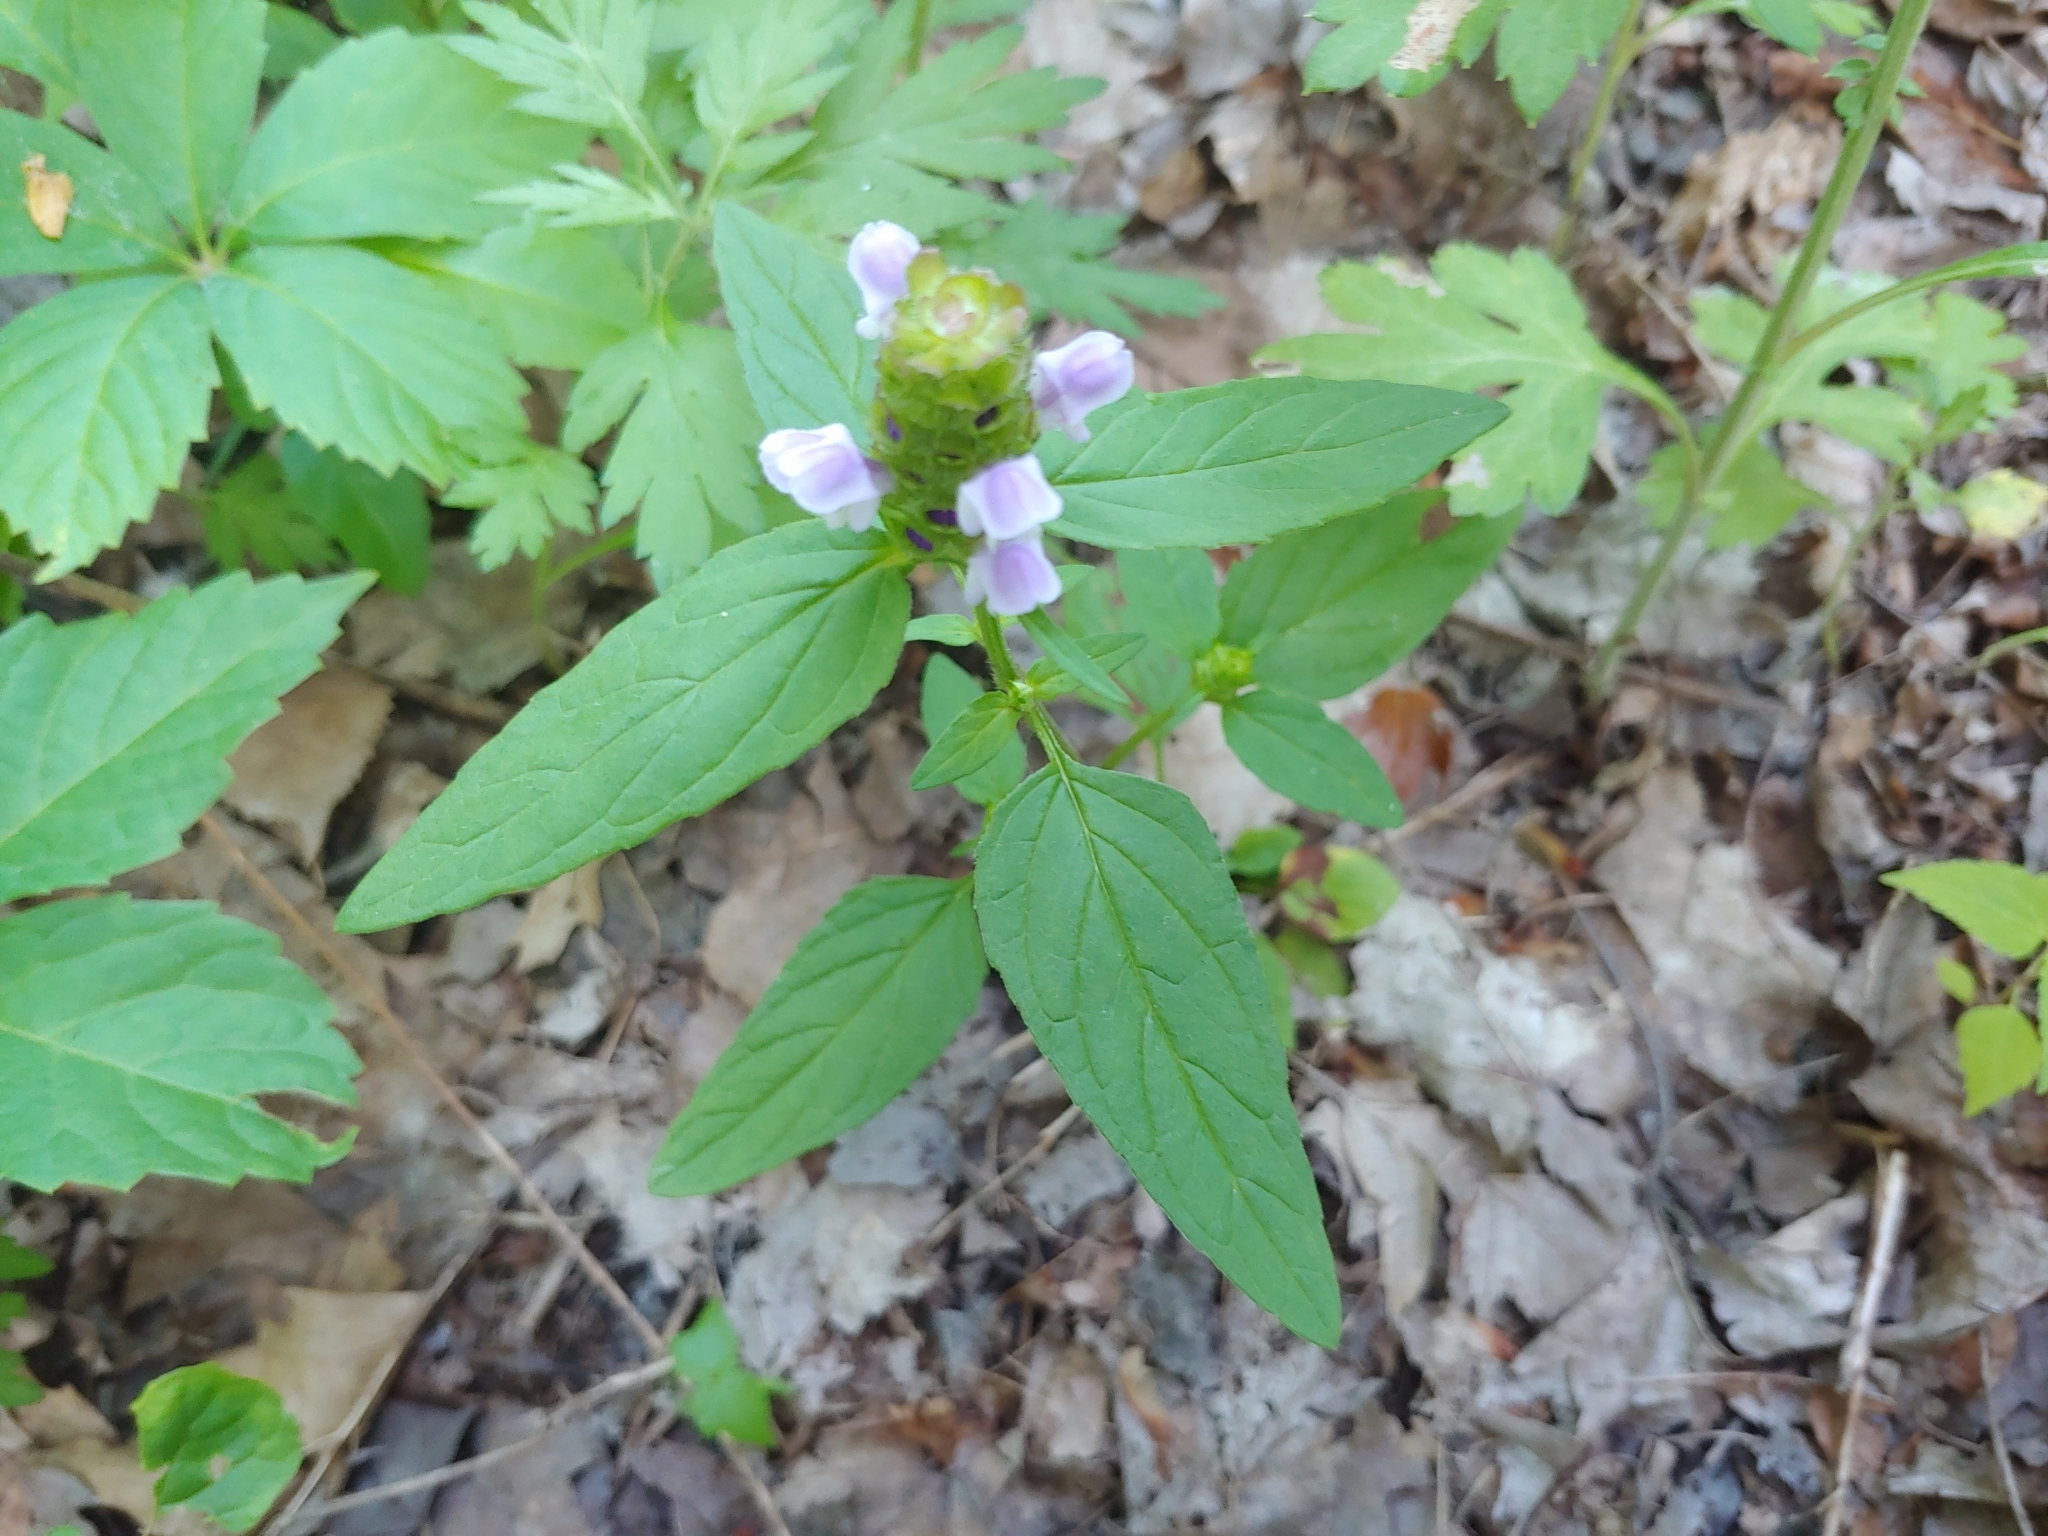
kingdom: Plantae
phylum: Tracheophyta
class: Magnoliopsida
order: Lamiales
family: Lamiaceae
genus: Prunella
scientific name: Prunella vulgaris
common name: Heal-all
